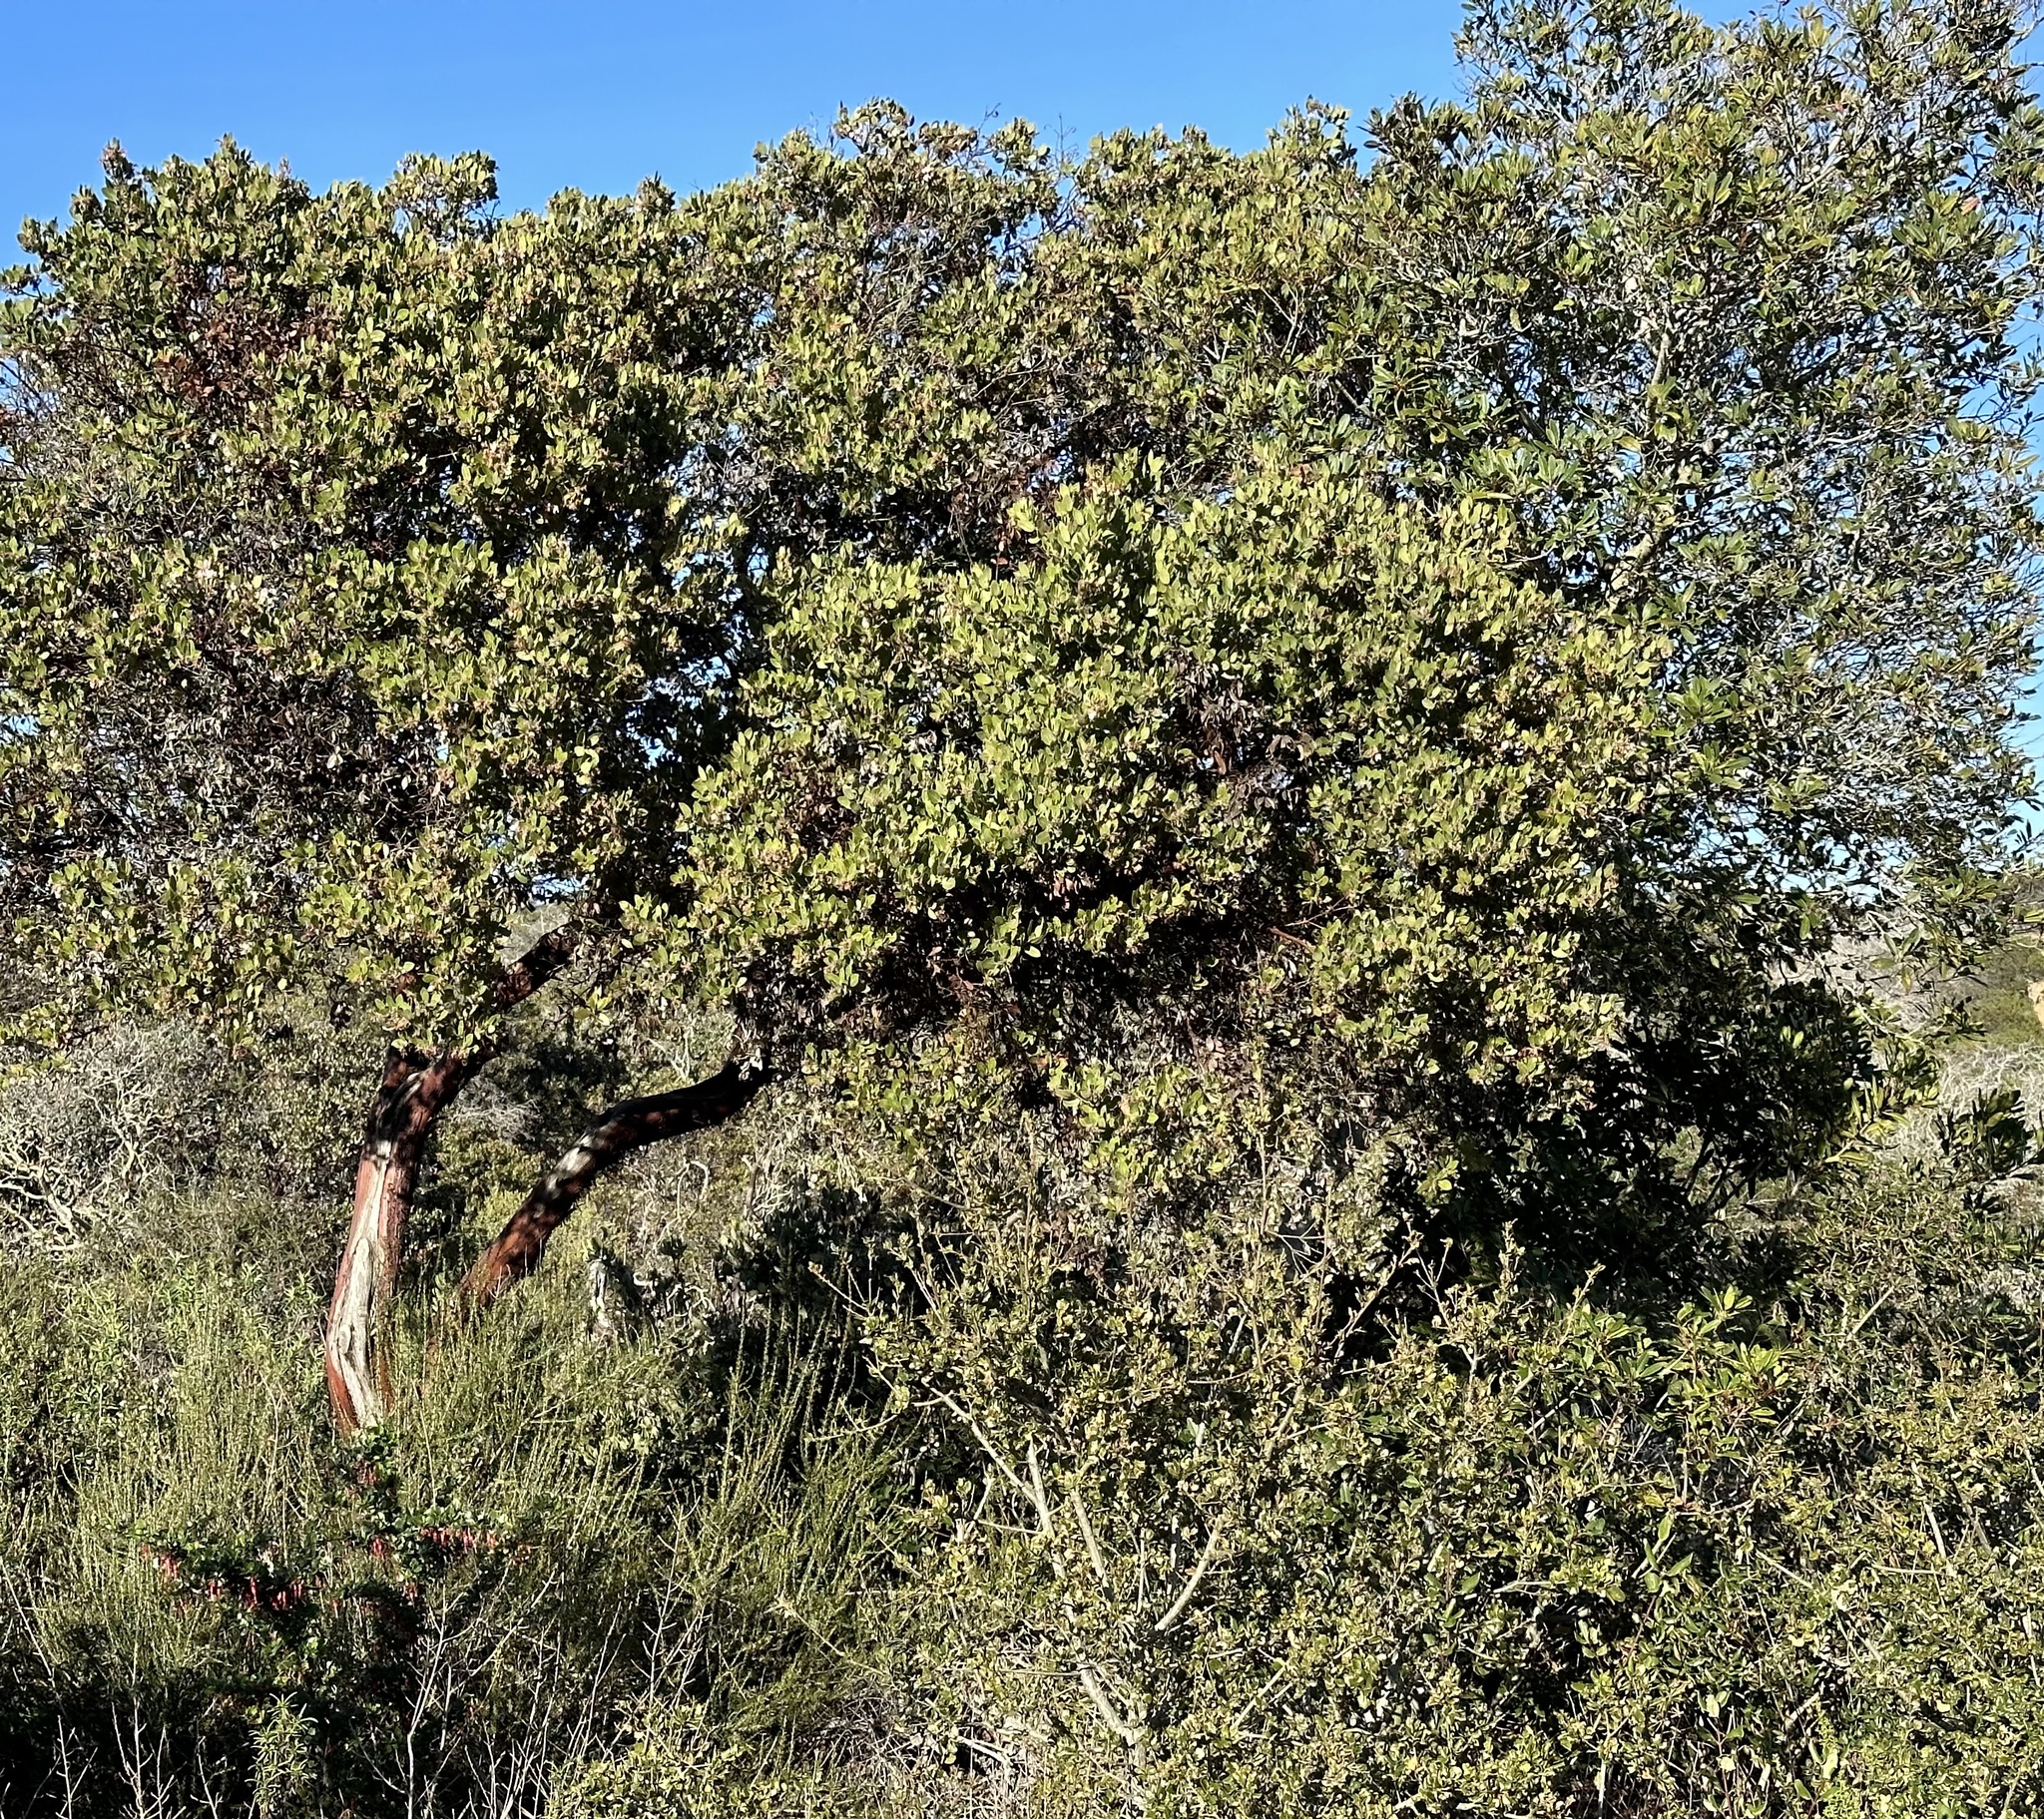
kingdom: Plantae
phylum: Tracheophyta
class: Magnoliopsida
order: Saxifragales
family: Grossulariaceae
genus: Ribes
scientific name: Ribes speciosum
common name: Fuchsia-flower gooseberry
